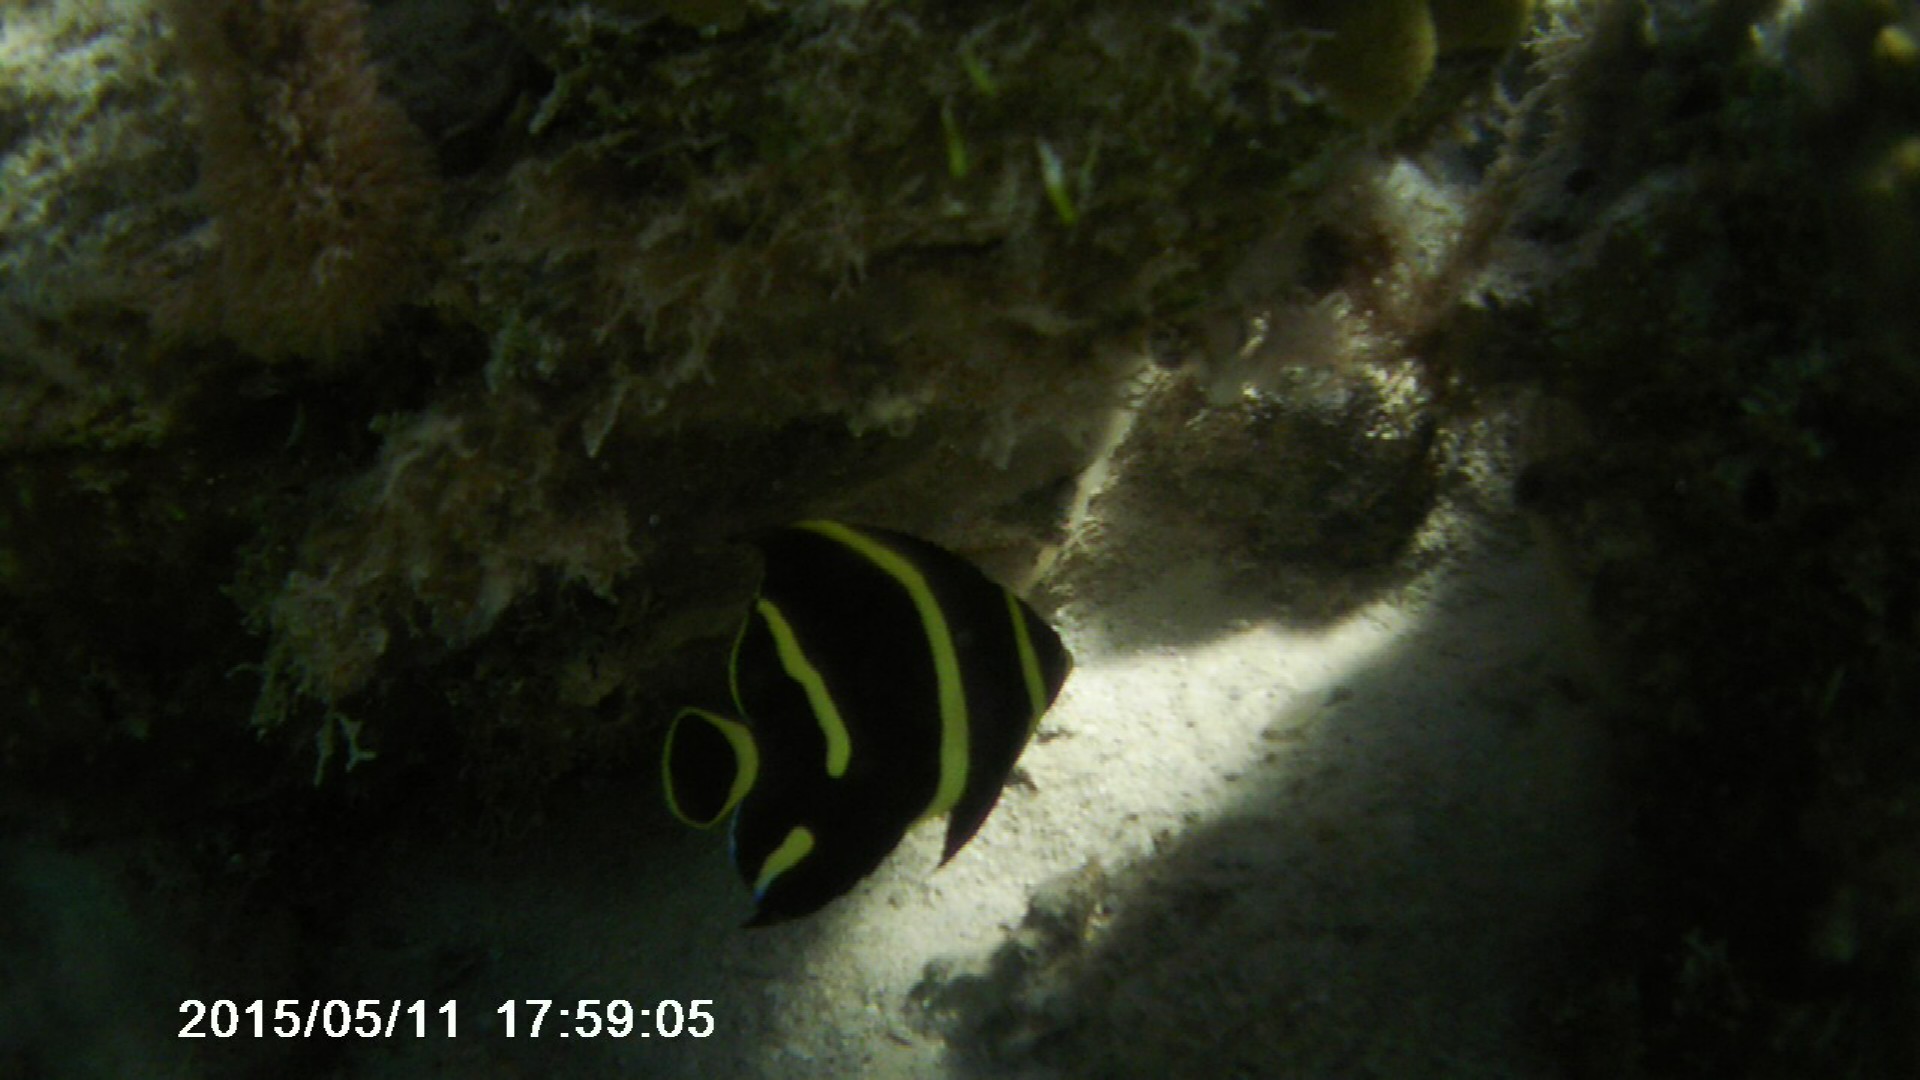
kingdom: Animalia
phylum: Chordata
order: Perciformes
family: Pomacanthidae
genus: Pomacanthus
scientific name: Pomacanthus paru
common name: French angelfish
